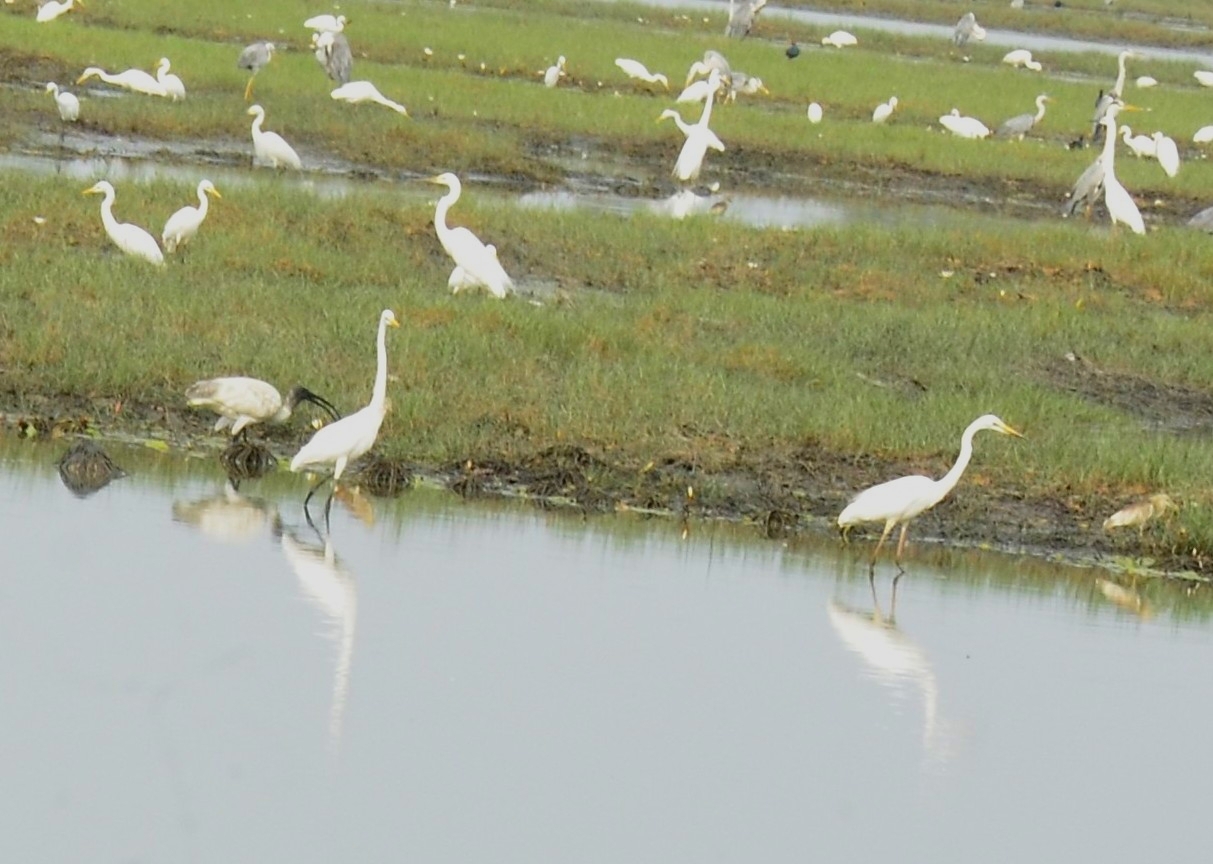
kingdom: Animalia
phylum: Chordata
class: Aves
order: Pelecaniformes
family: Ardeidae
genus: Ardea
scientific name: Ardea alba
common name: Great egret
